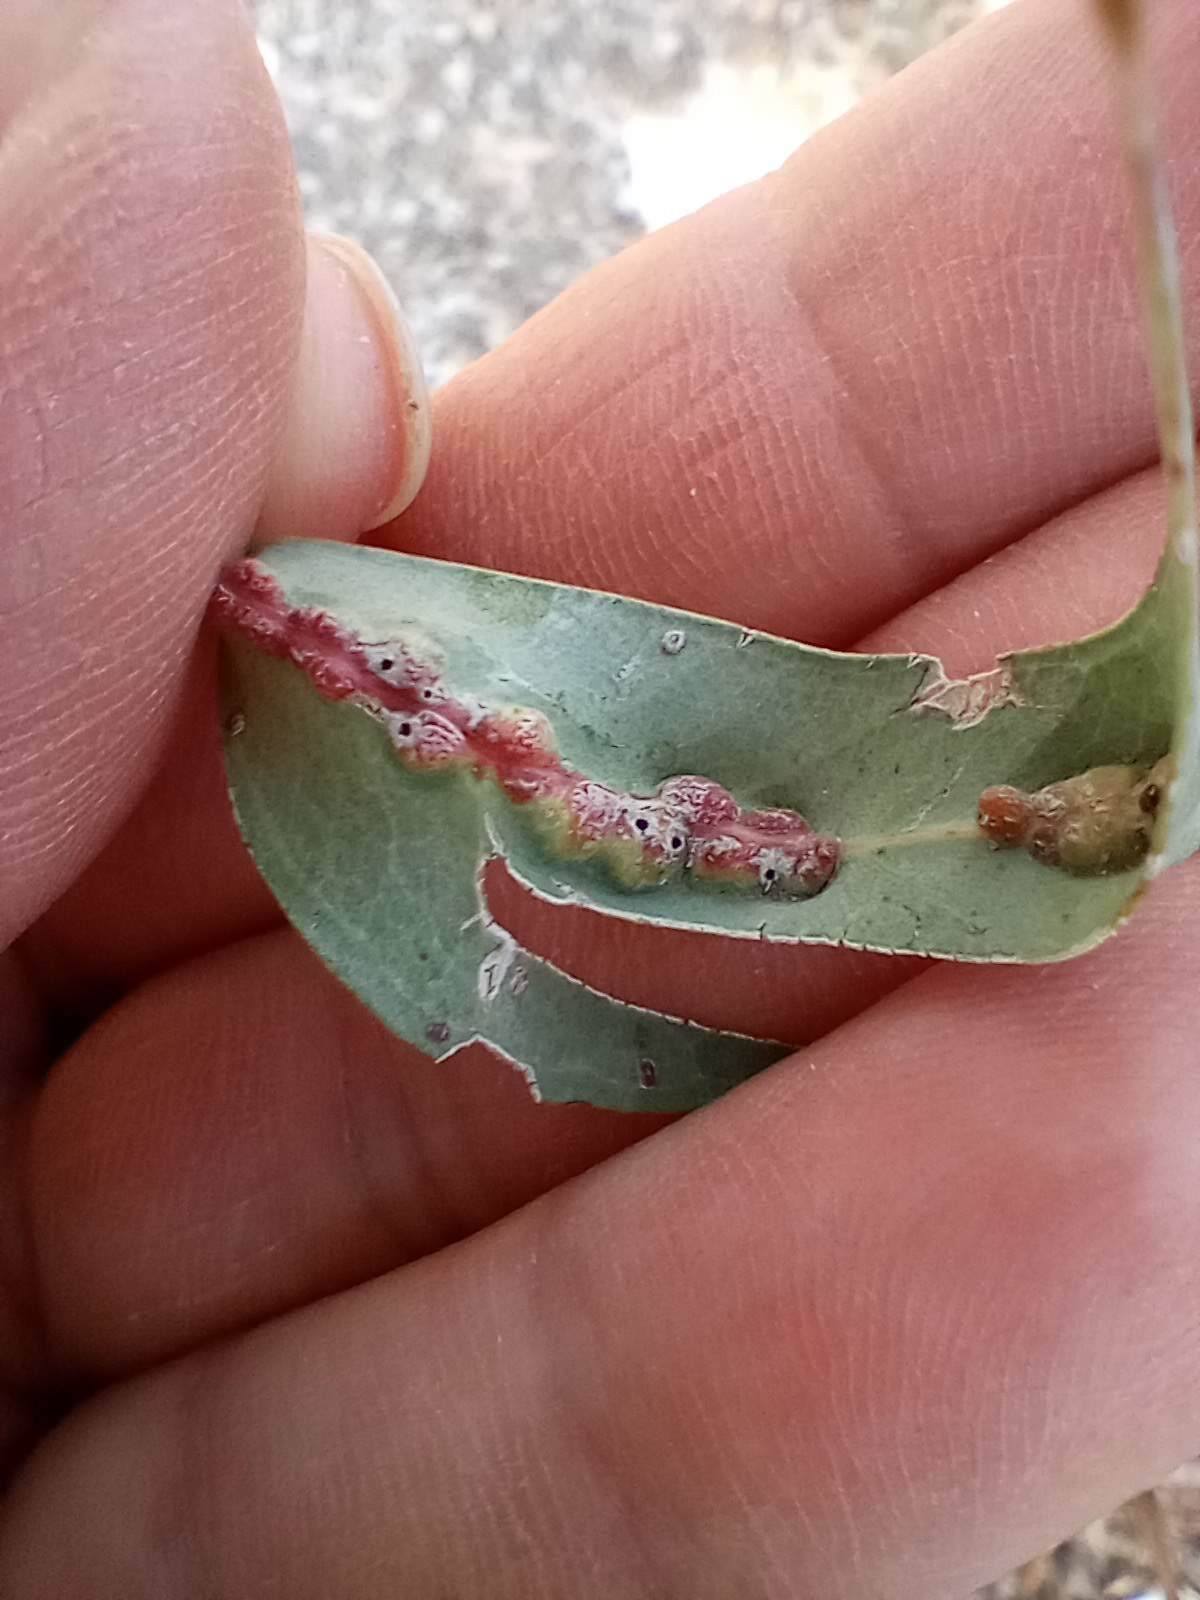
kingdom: Animalia
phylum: Arthropoda
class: Insecta
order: Hymenoptera
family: Eulophidae
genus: Leptocybe
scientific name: Leptocybe invasa
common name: Gall wasp
